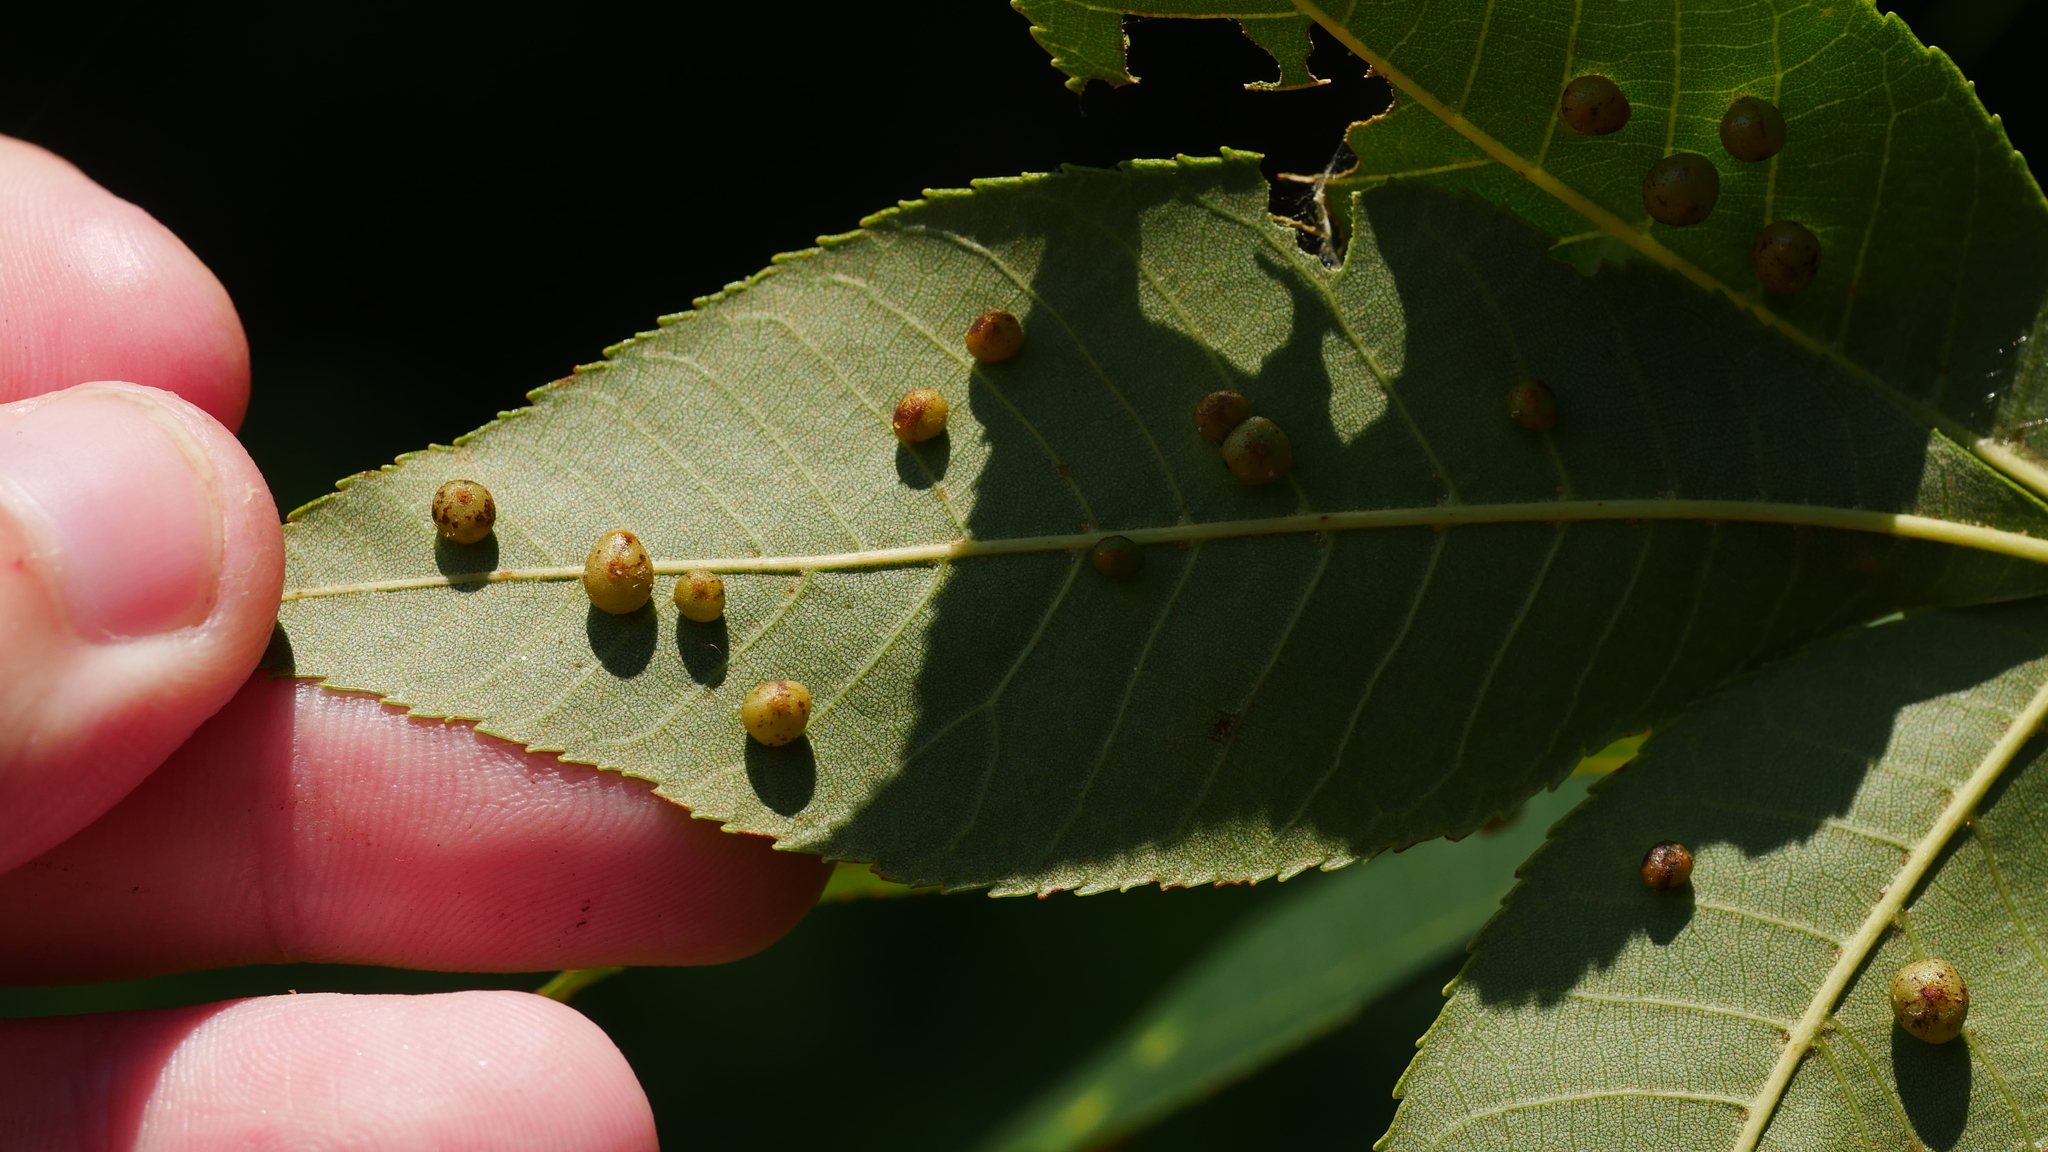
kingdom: Animalia
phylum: Arthropoda
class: Insecta
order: Diptera
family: Cecidomyiidae
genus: Caryomyia
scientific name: Caryomyia caryae
